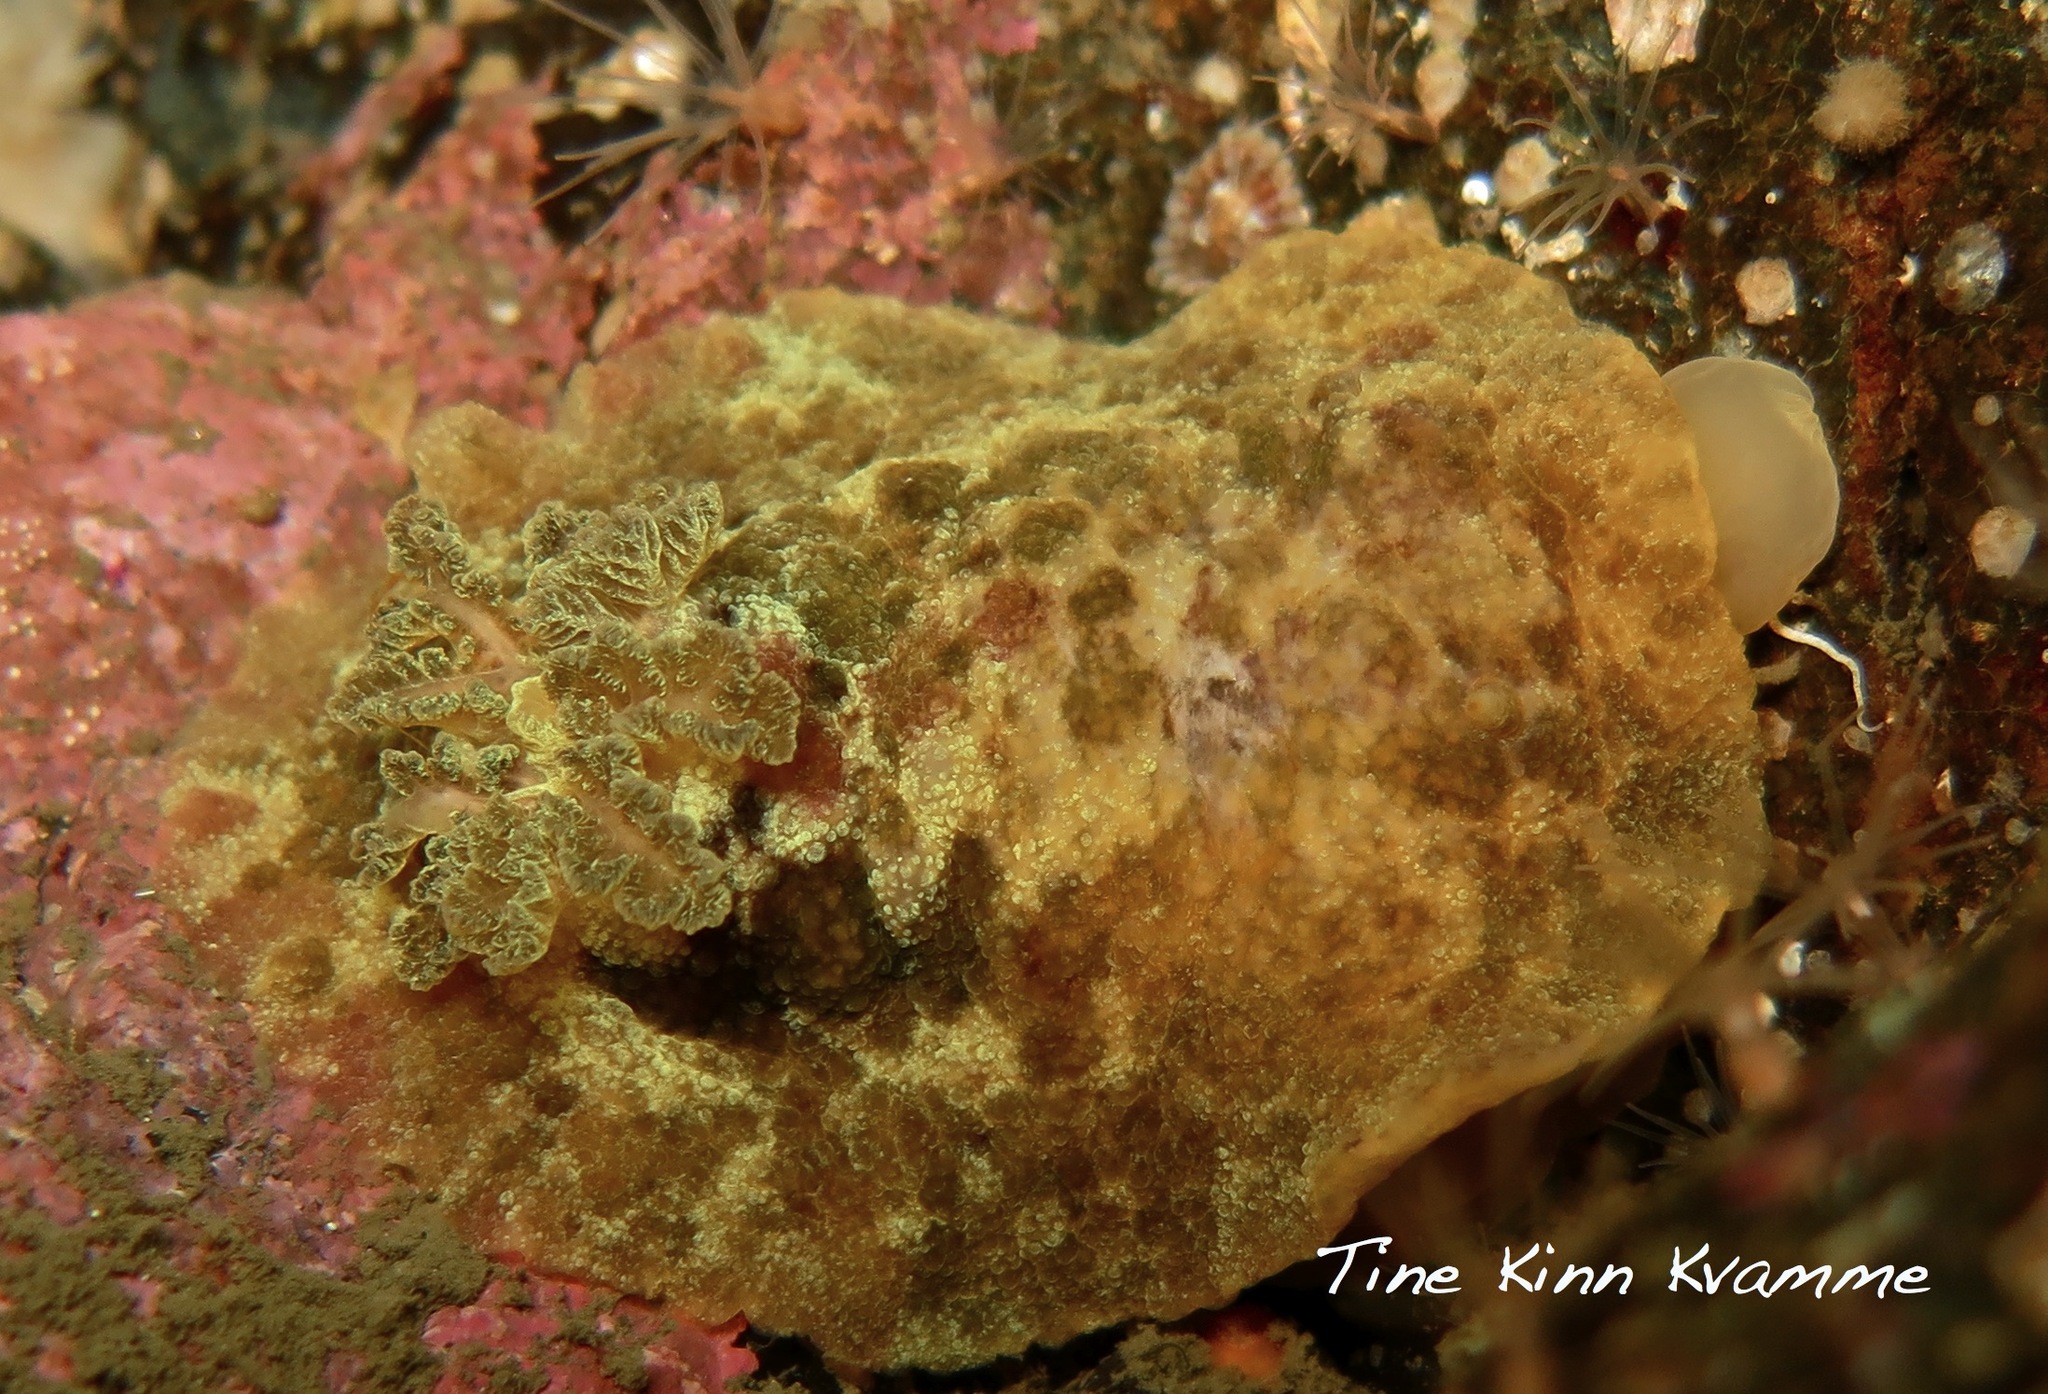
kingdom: Animalia
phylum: Mollusca
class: Gastropoda
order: Nudibranchia
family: Dorididae
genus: Doris
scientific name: Doris pseudoargus
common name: Sea lemon
